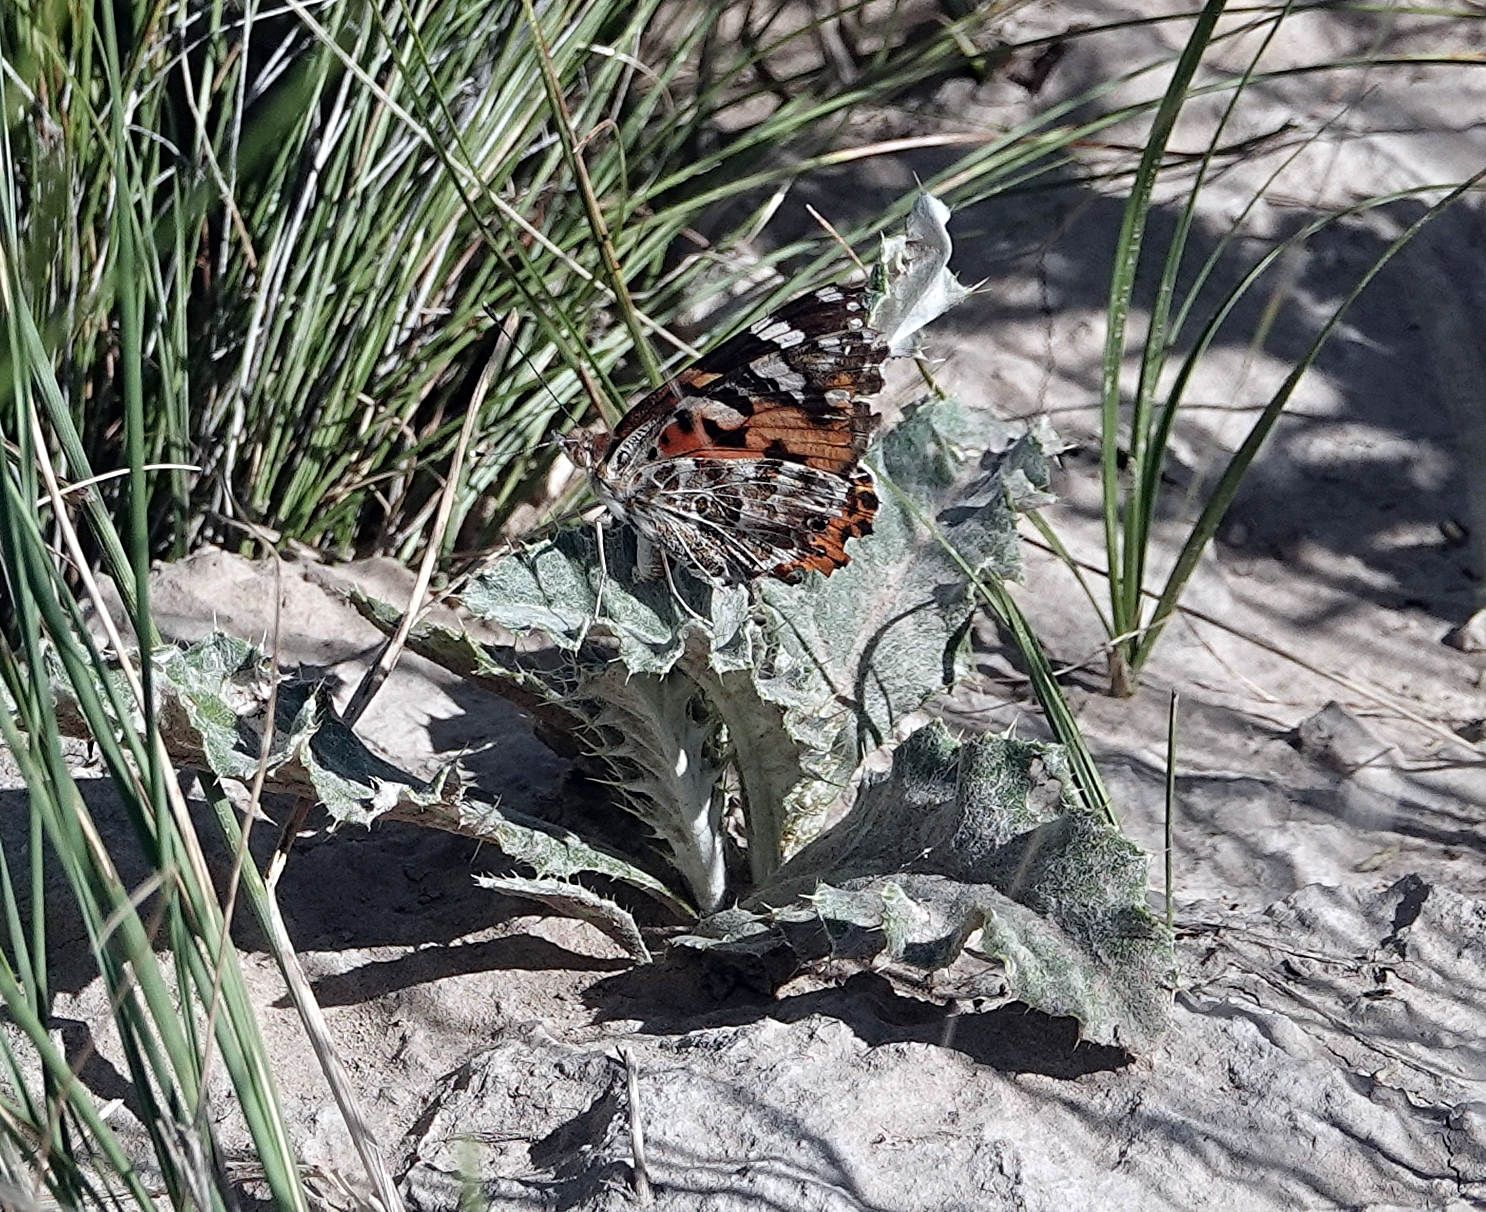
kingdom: Animalia
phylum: Arthropoda
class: Insecta
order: Lepidoptera
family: Nymphalidae
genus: Vanessa
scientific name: Vanessa cardui
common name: Painted lady
